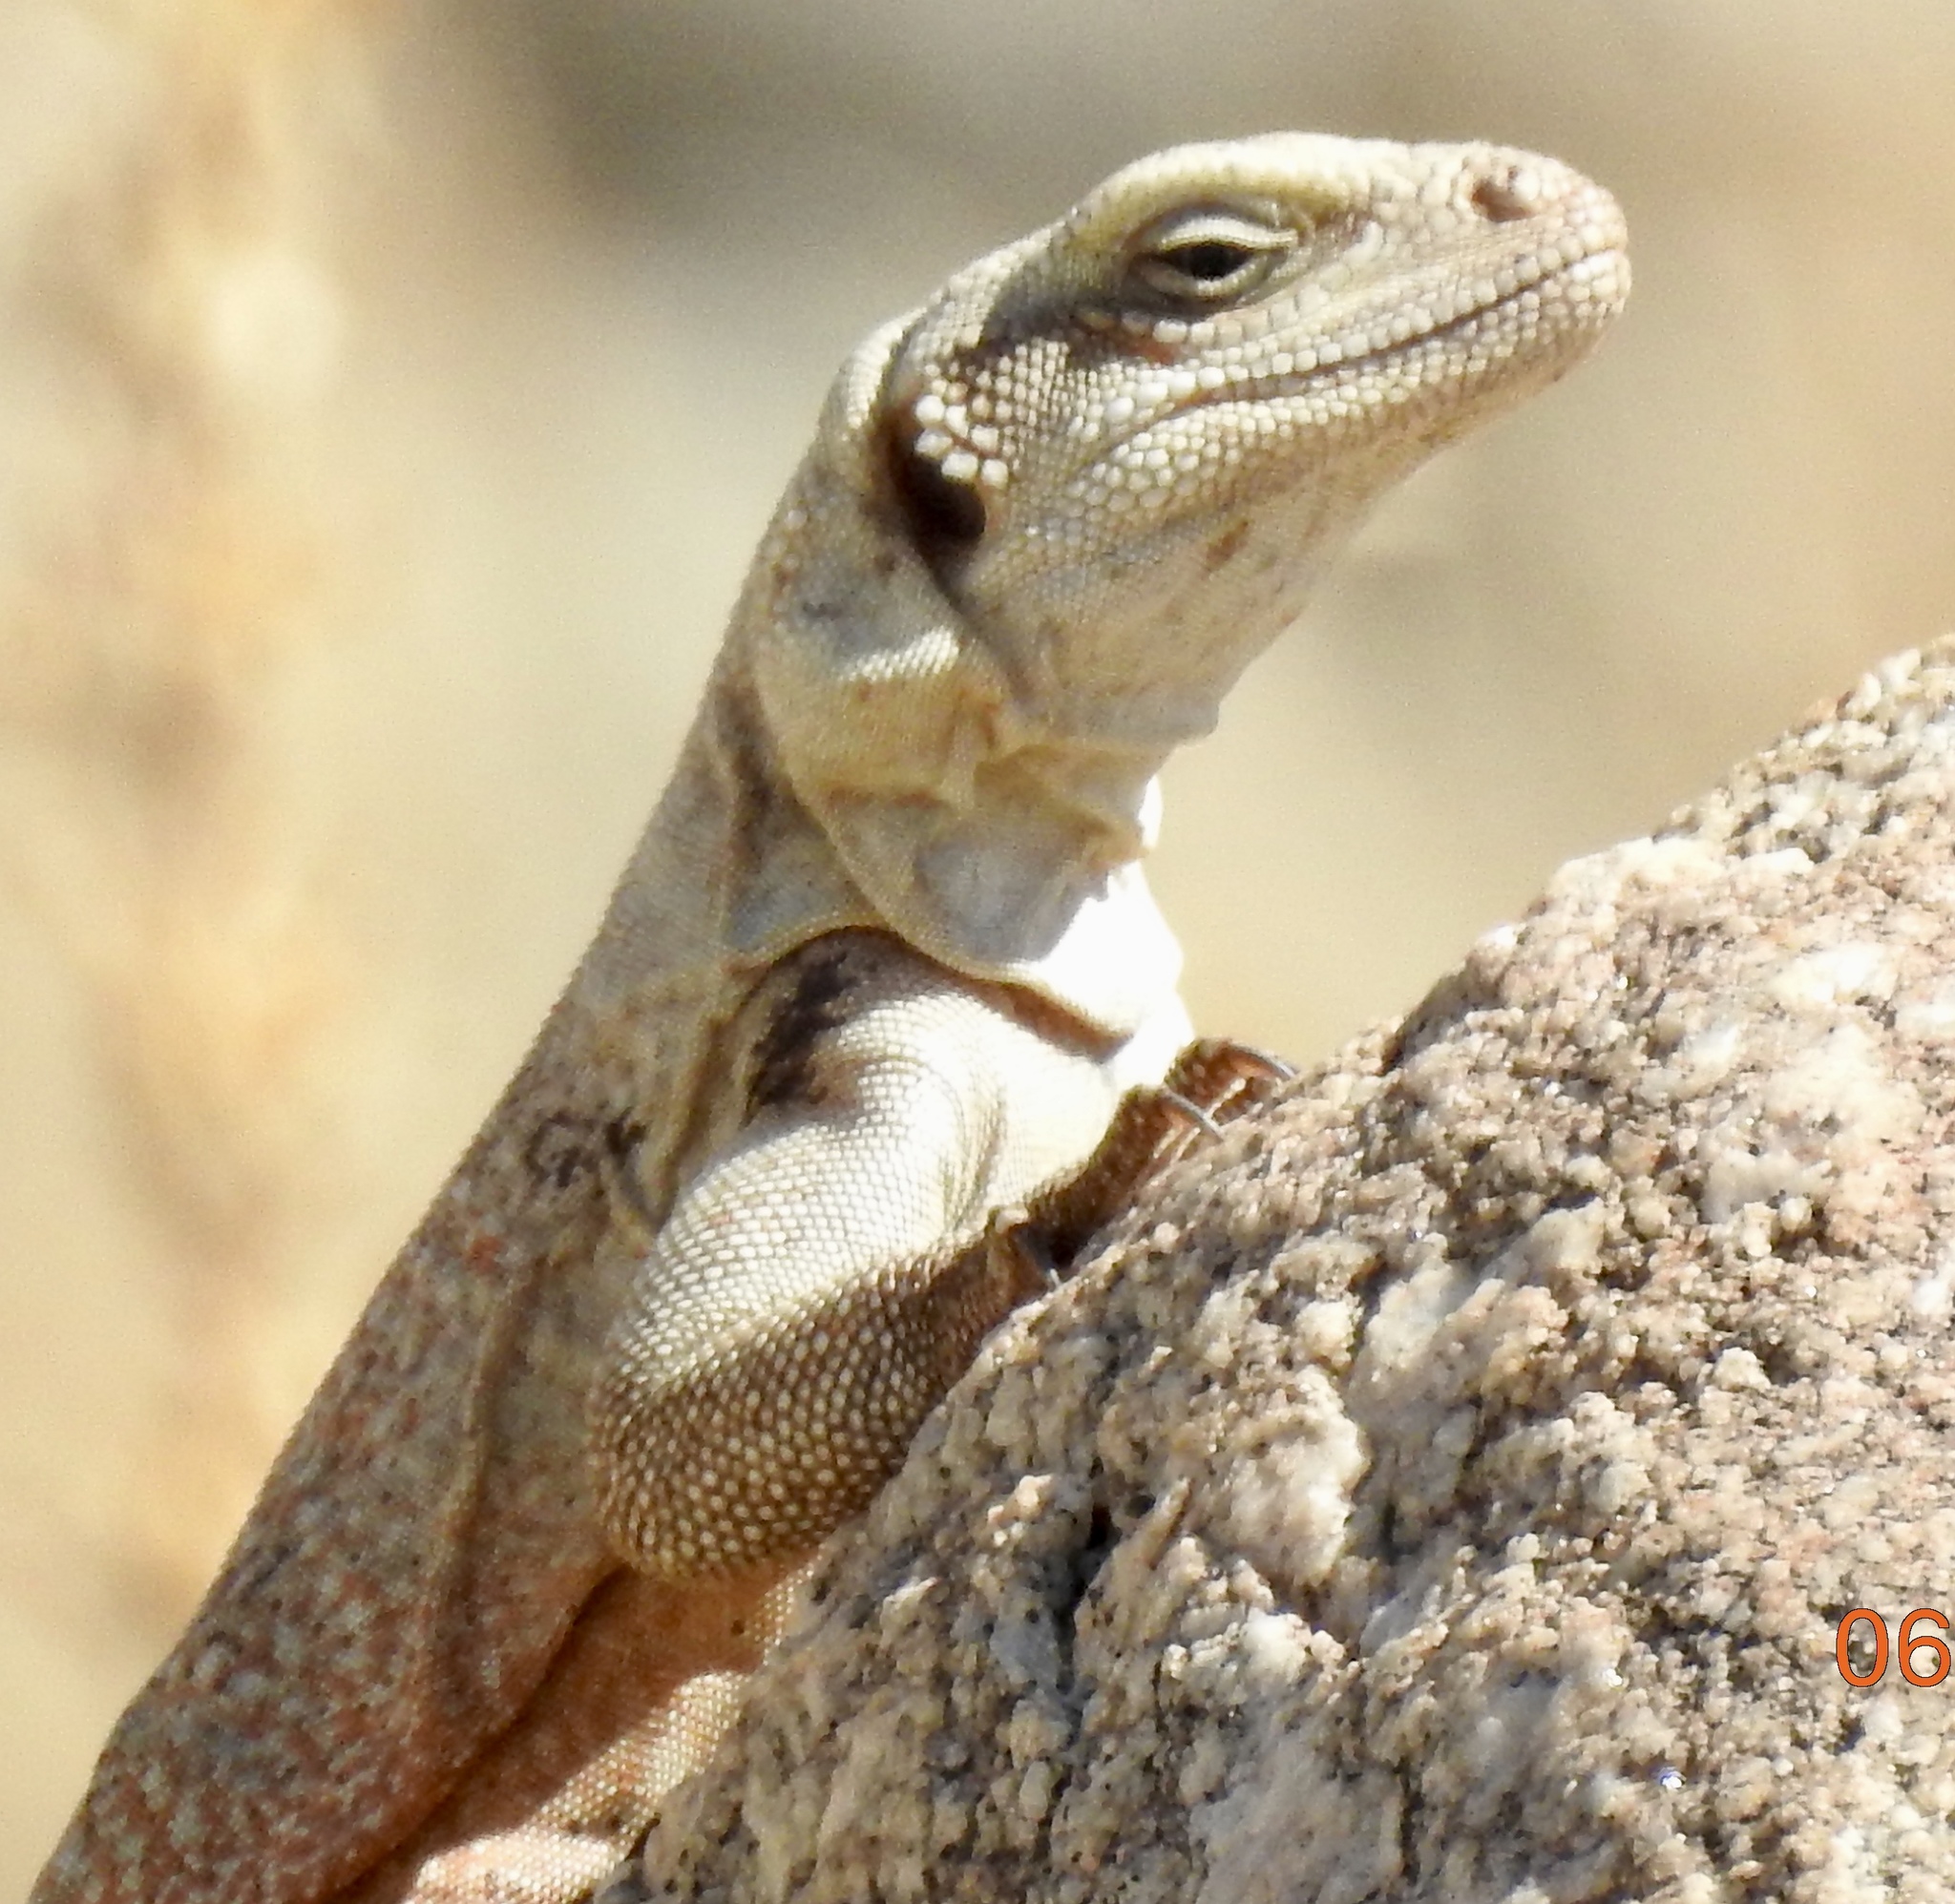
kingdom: Animalia
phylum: Chordata
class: Squamata
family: Iguanidae
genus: Sauromalus
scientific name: Sauromalus ater
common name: Northern chuckwalla
